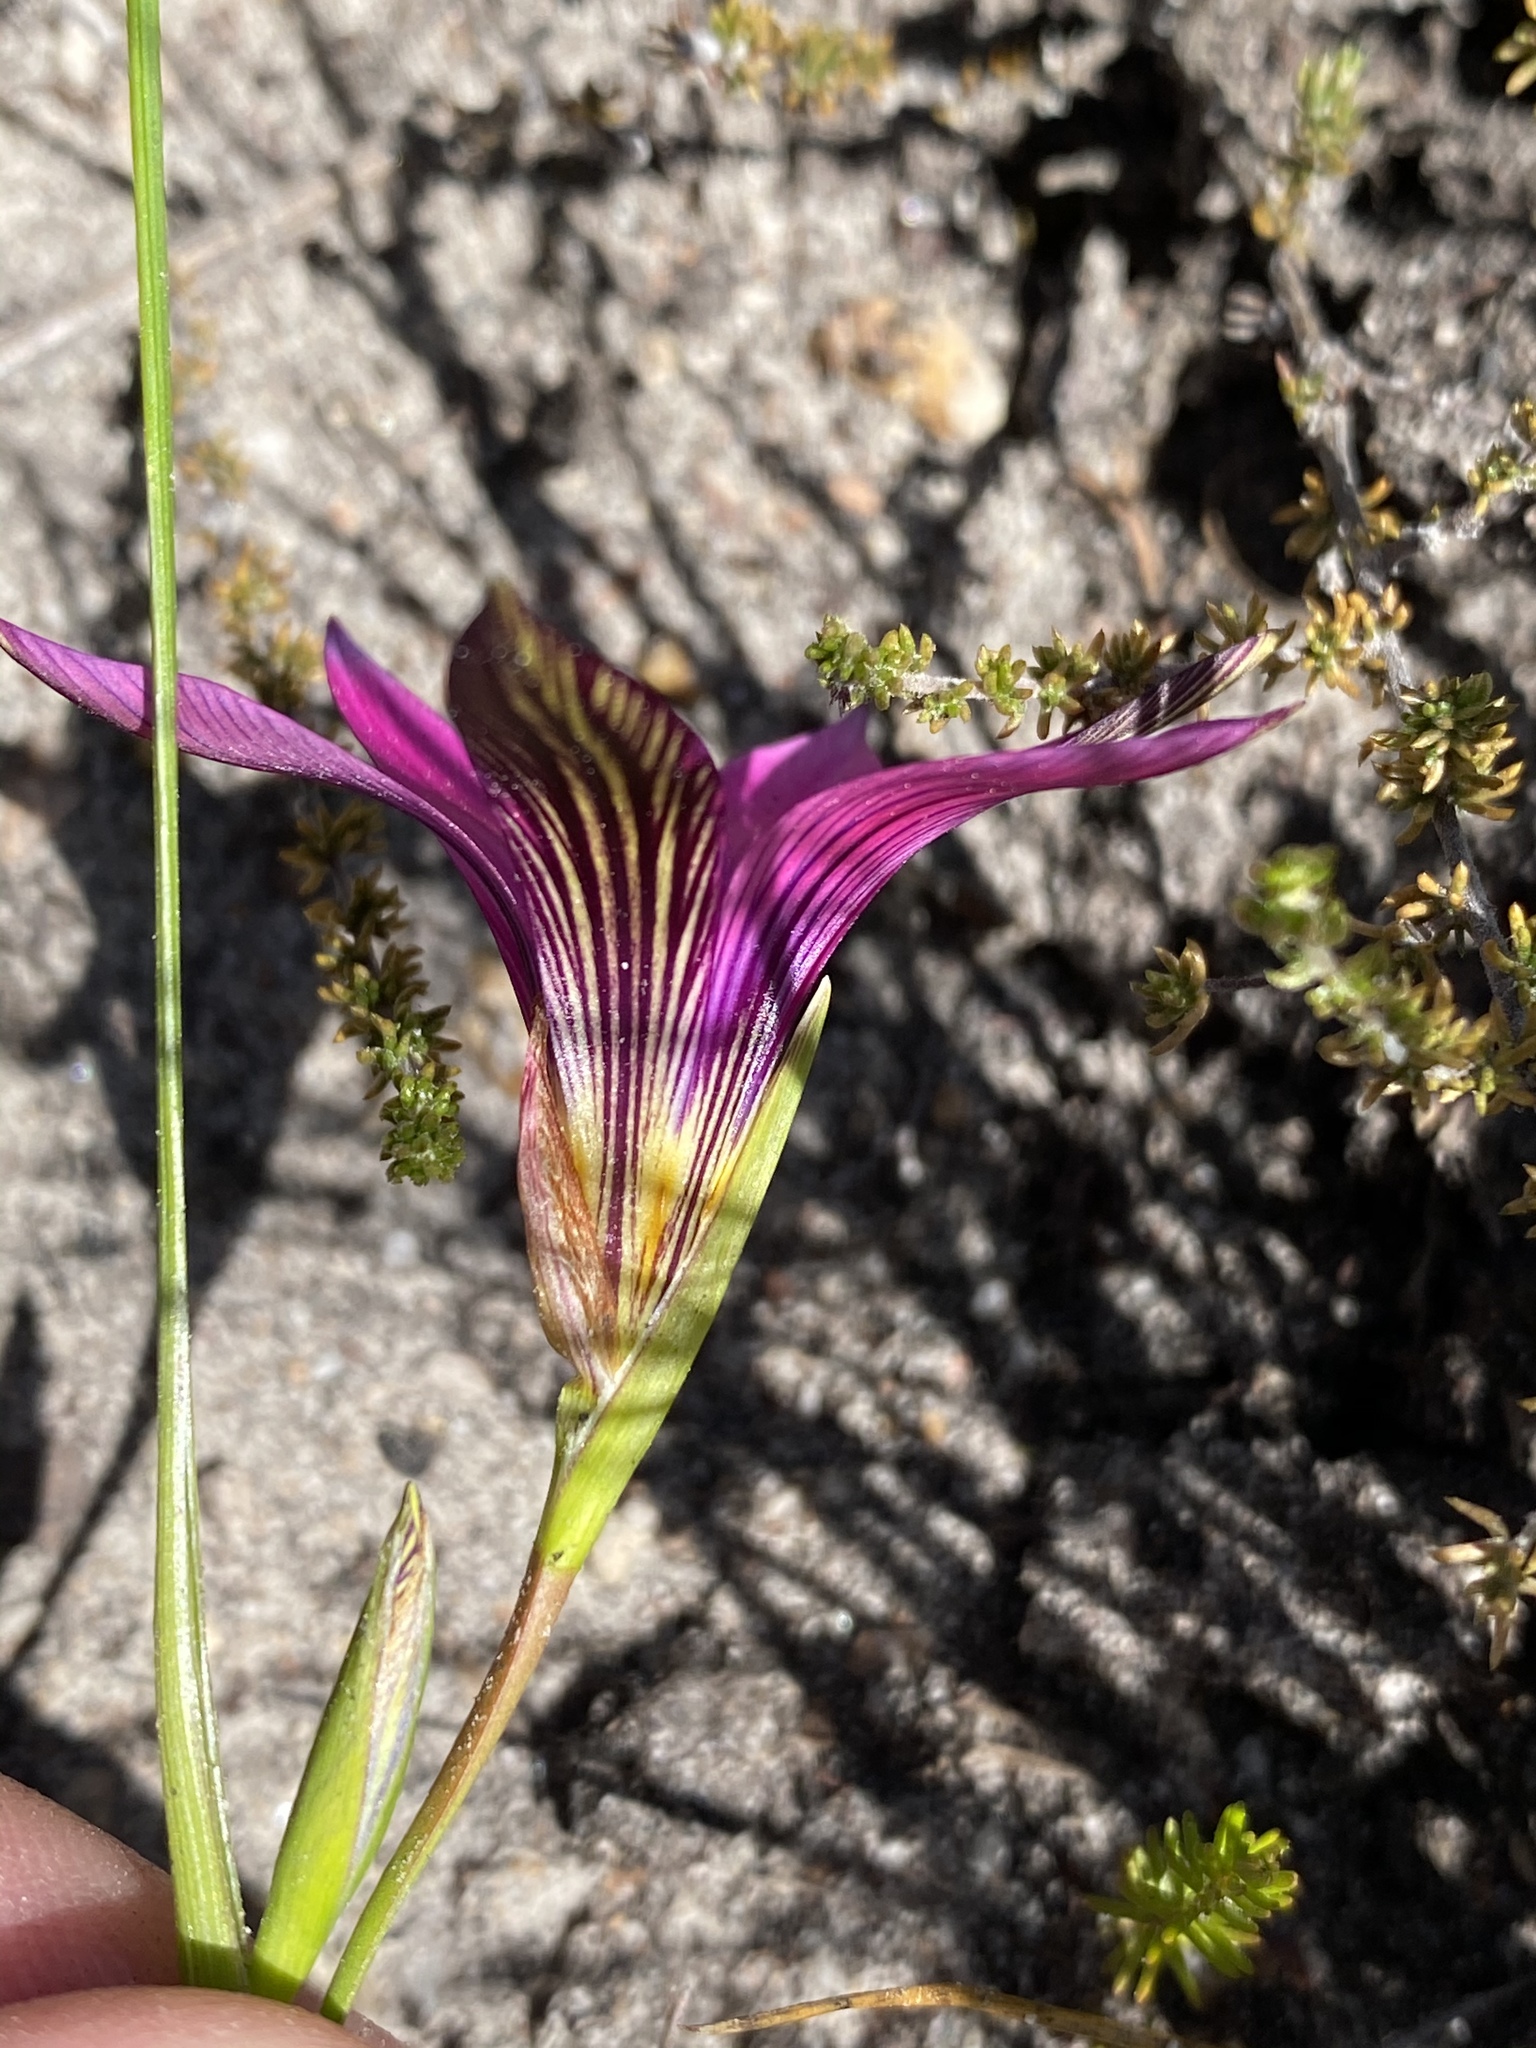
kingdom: Plantae
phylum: Tracheophyta
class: Liliopsida
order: Asparagales
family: Iridaceae
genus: Romulea
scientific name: Romulea rosea
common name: Oniongrass
